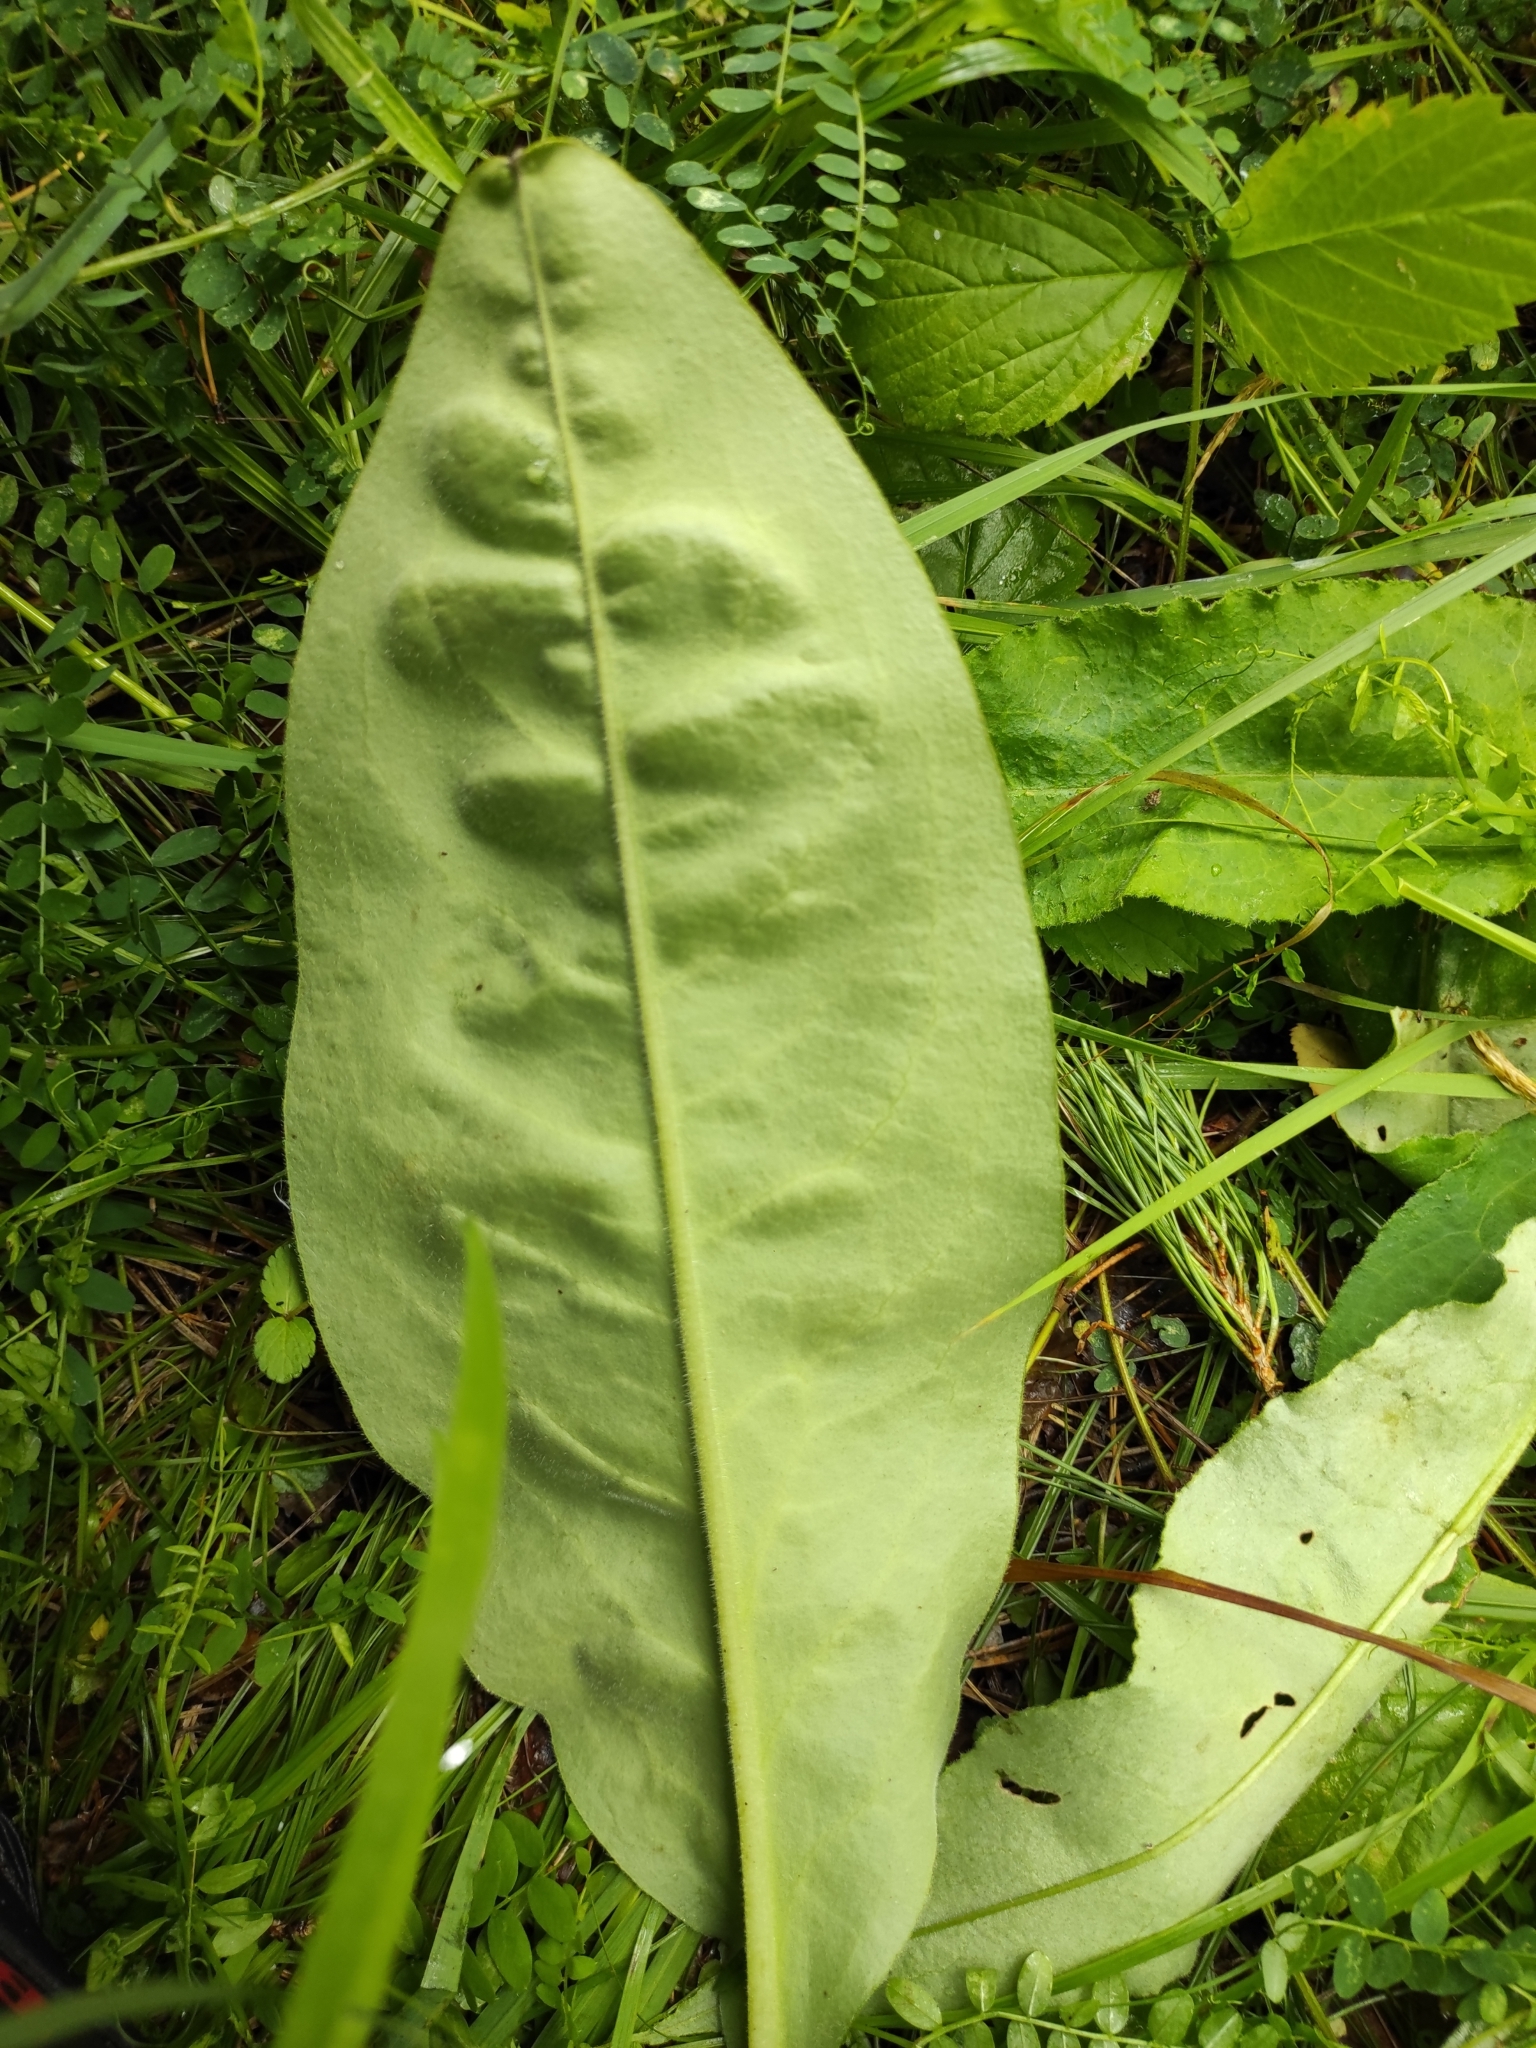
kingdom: Plantae
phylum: Tracheophyta
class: Magnoliopsida
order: Boraginales
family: Boraginaceae
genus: Pulmonaria
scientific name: Pulmonaria mollis
